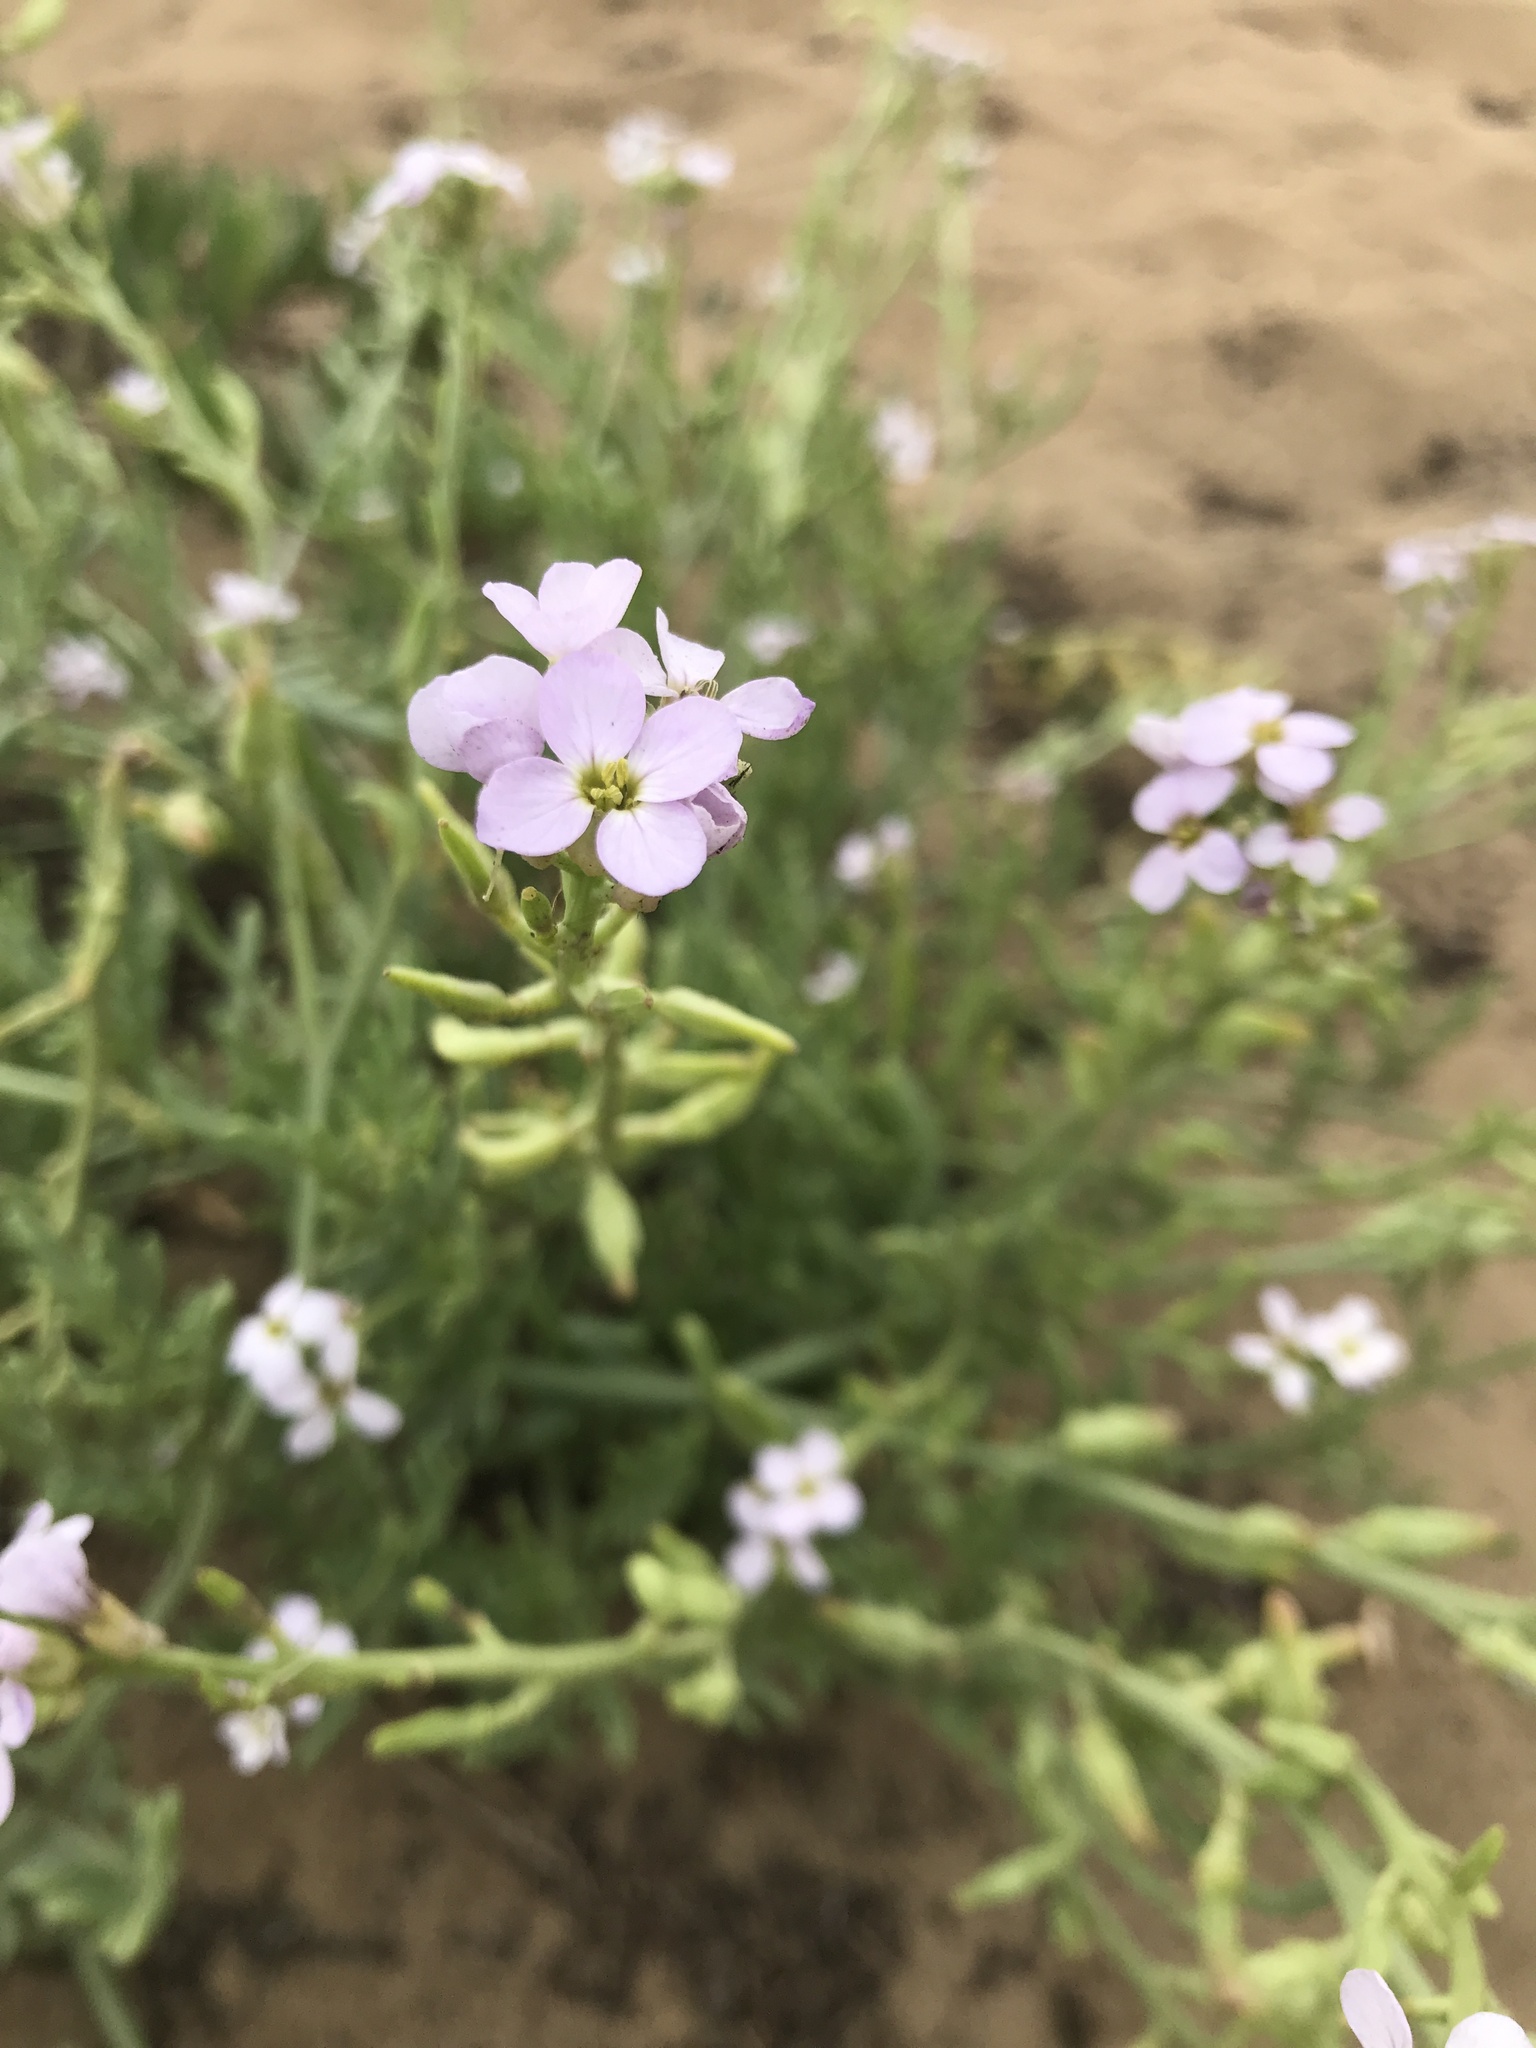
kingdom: Plantae
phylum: Tracheophyta
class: Magnoliopsida
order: Brassicales
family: Brassicaceae
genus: Cakile
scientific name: Cakile maritima
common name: Sea rocket
